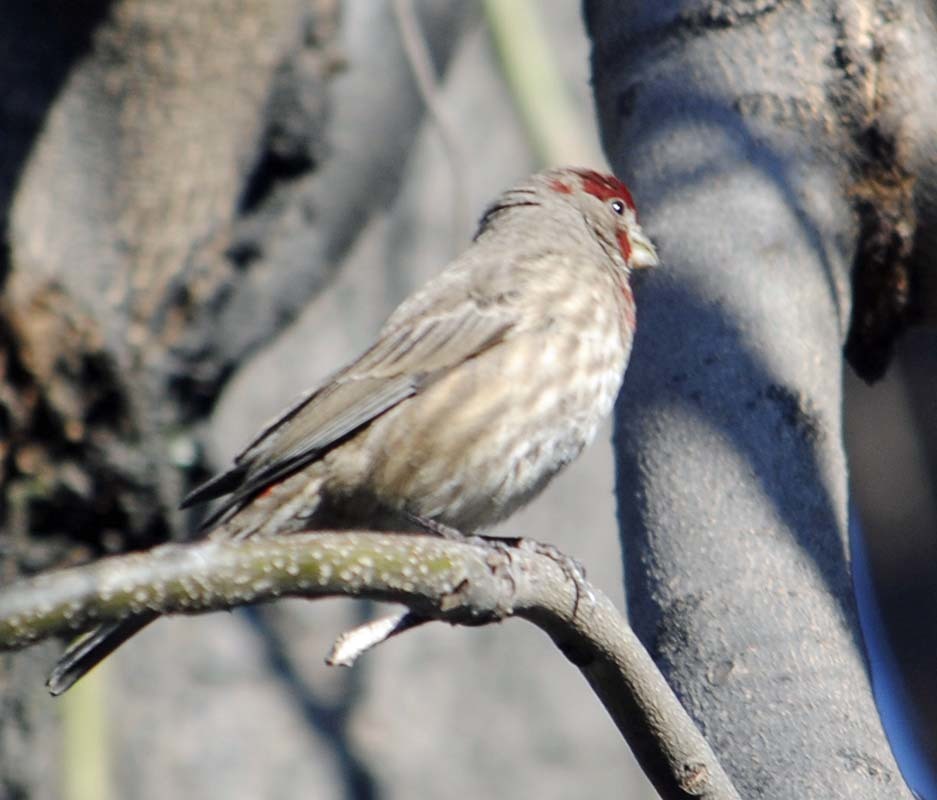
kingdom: Animalia
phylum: Chordata
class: Aves
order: Passeriformes
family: Fringillidae
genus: Haemorhous
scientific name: Haemorhous mexicanus
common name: House finch
